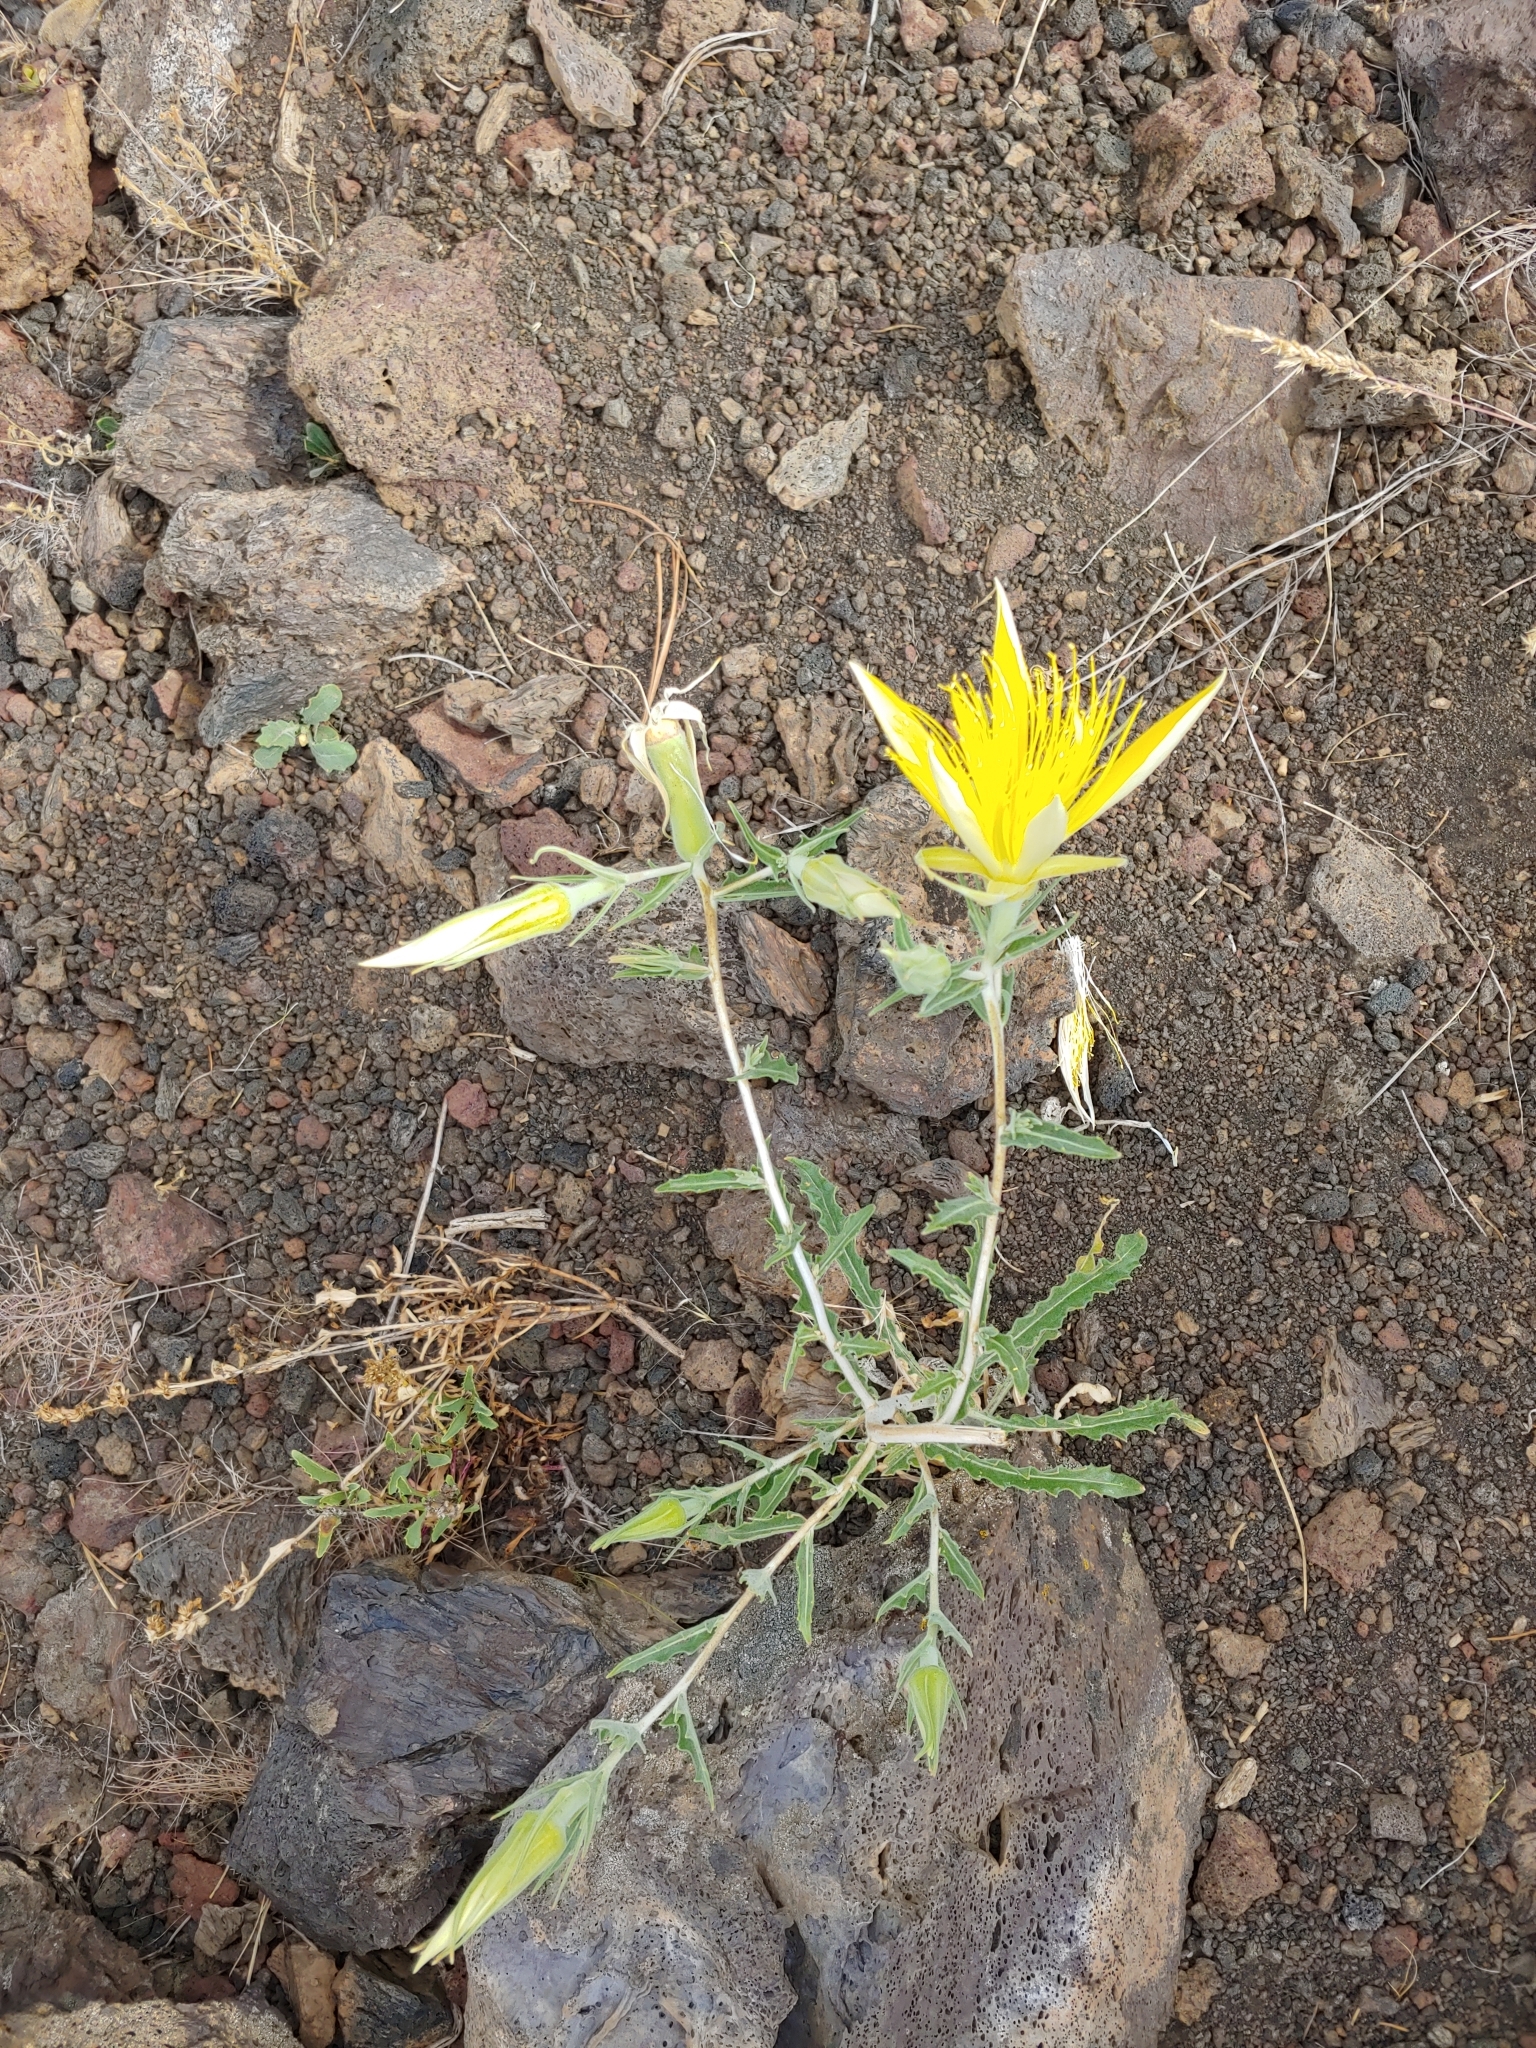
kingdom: Plantae
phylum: Tracheophyta
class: Magnoliopsida
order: Cornales
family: Loasaceae
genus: Mentzelia
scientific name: Mentzelia laevicaulis
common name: Smooth-stem blazingstar
